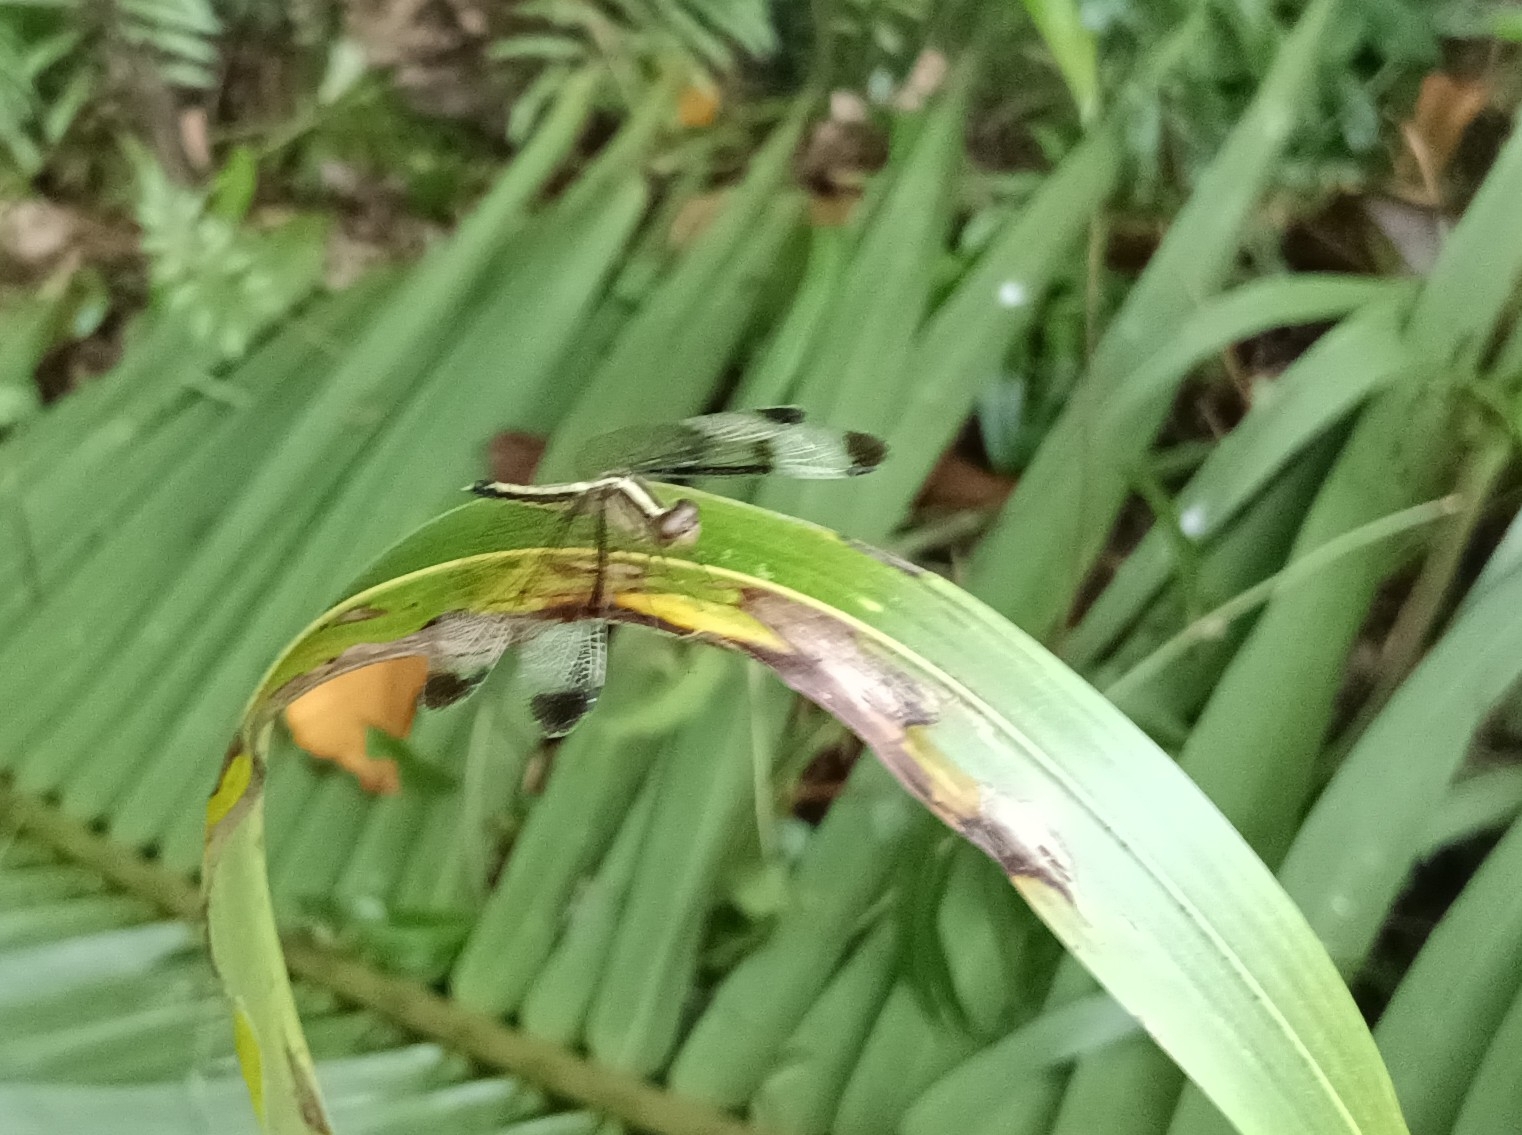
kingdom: Animalia
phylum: Arthropoda
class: Insecta
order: Odonata
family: Libellulidae
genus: Neurothemis
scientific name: Neurothemis tullia
